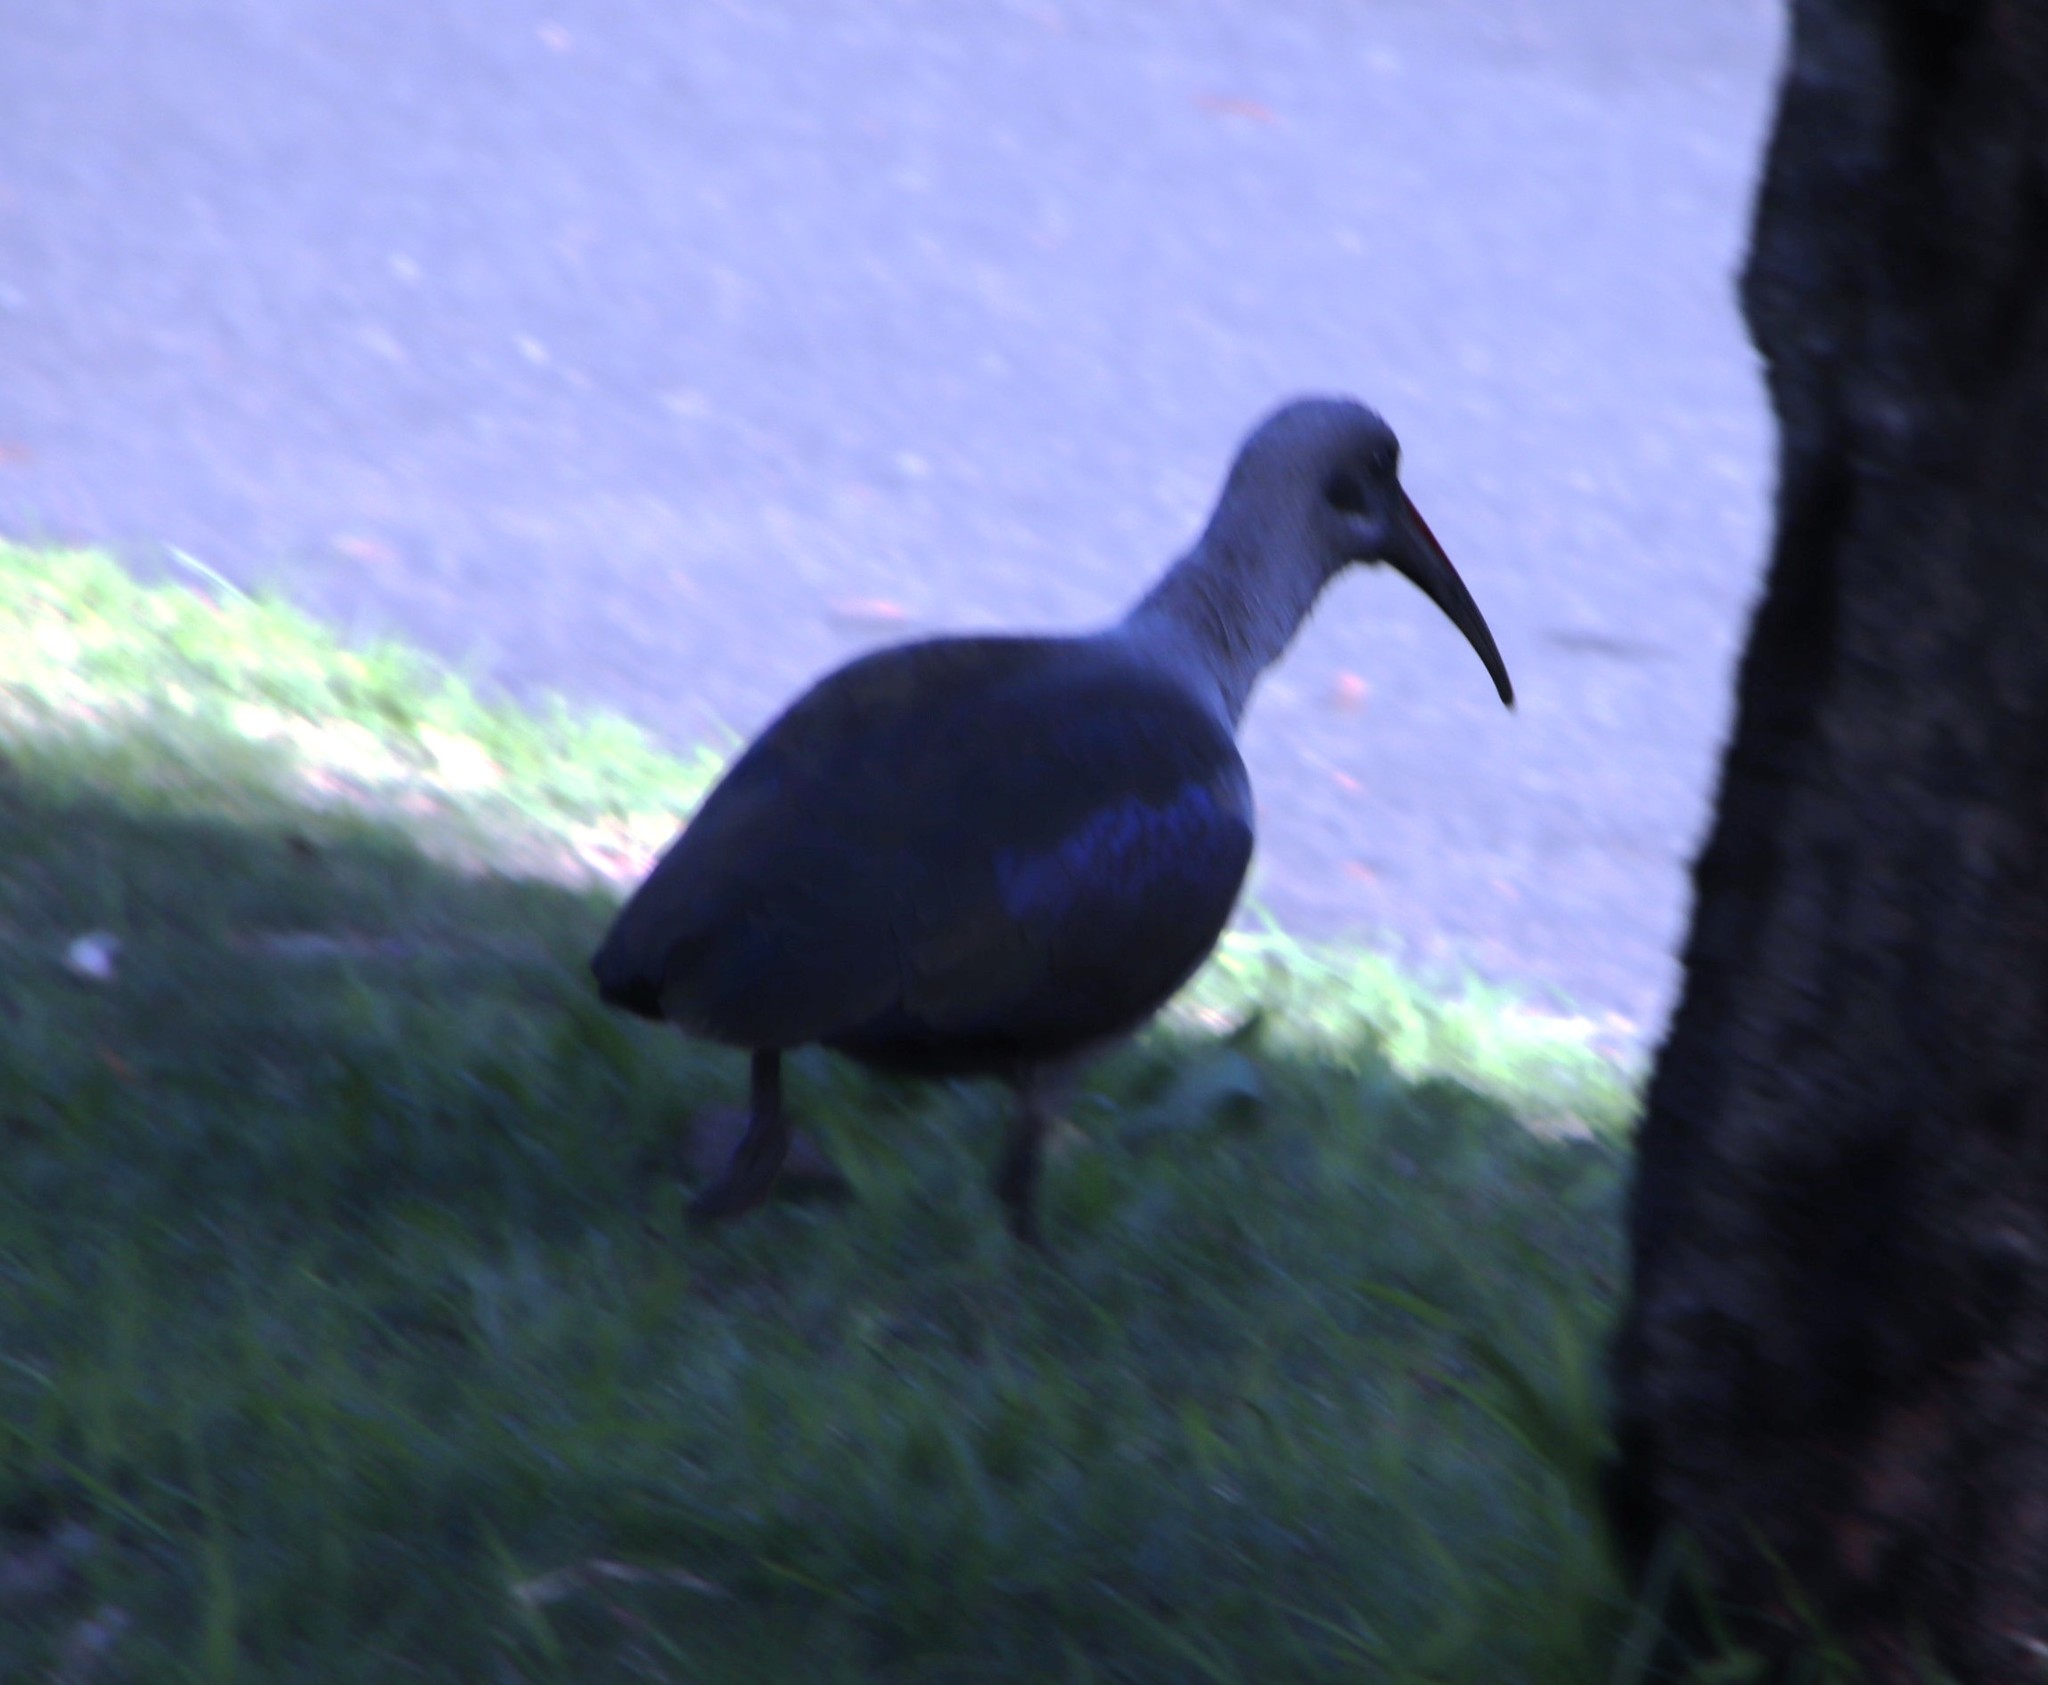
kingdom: Animalia
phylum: Chordata
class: Aves
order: Pelecaniformes
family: Threskiornithidae
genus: Bostrychia
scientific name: Bostrychia hagedash
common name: Hadada ibis
